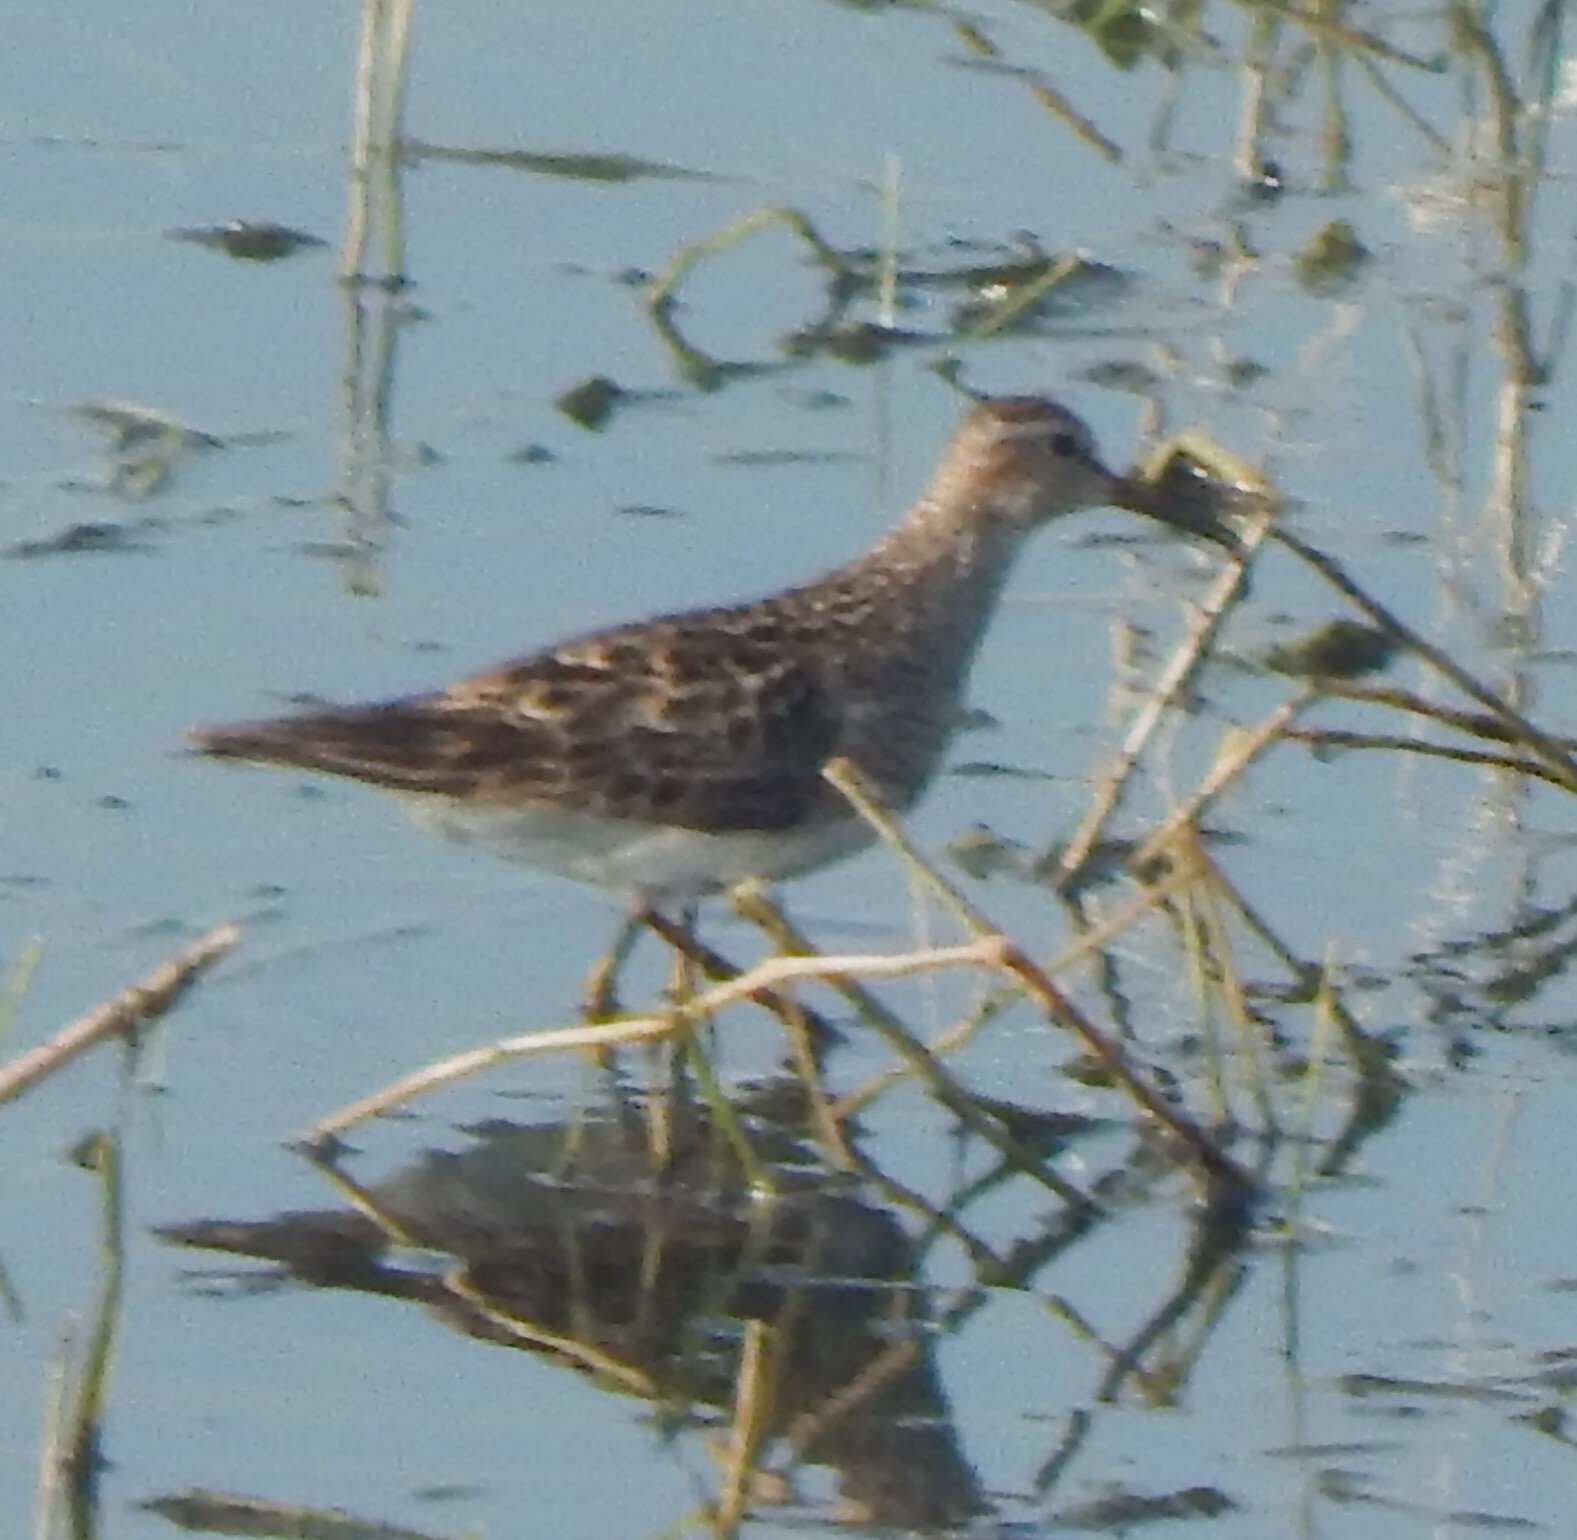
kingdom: Animalia
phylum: Chordata
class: Aves
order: Charadriiformes
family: Scolopacidae
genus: Calidris
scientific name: Calidris melanotos
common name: Pectoral sandpiper
